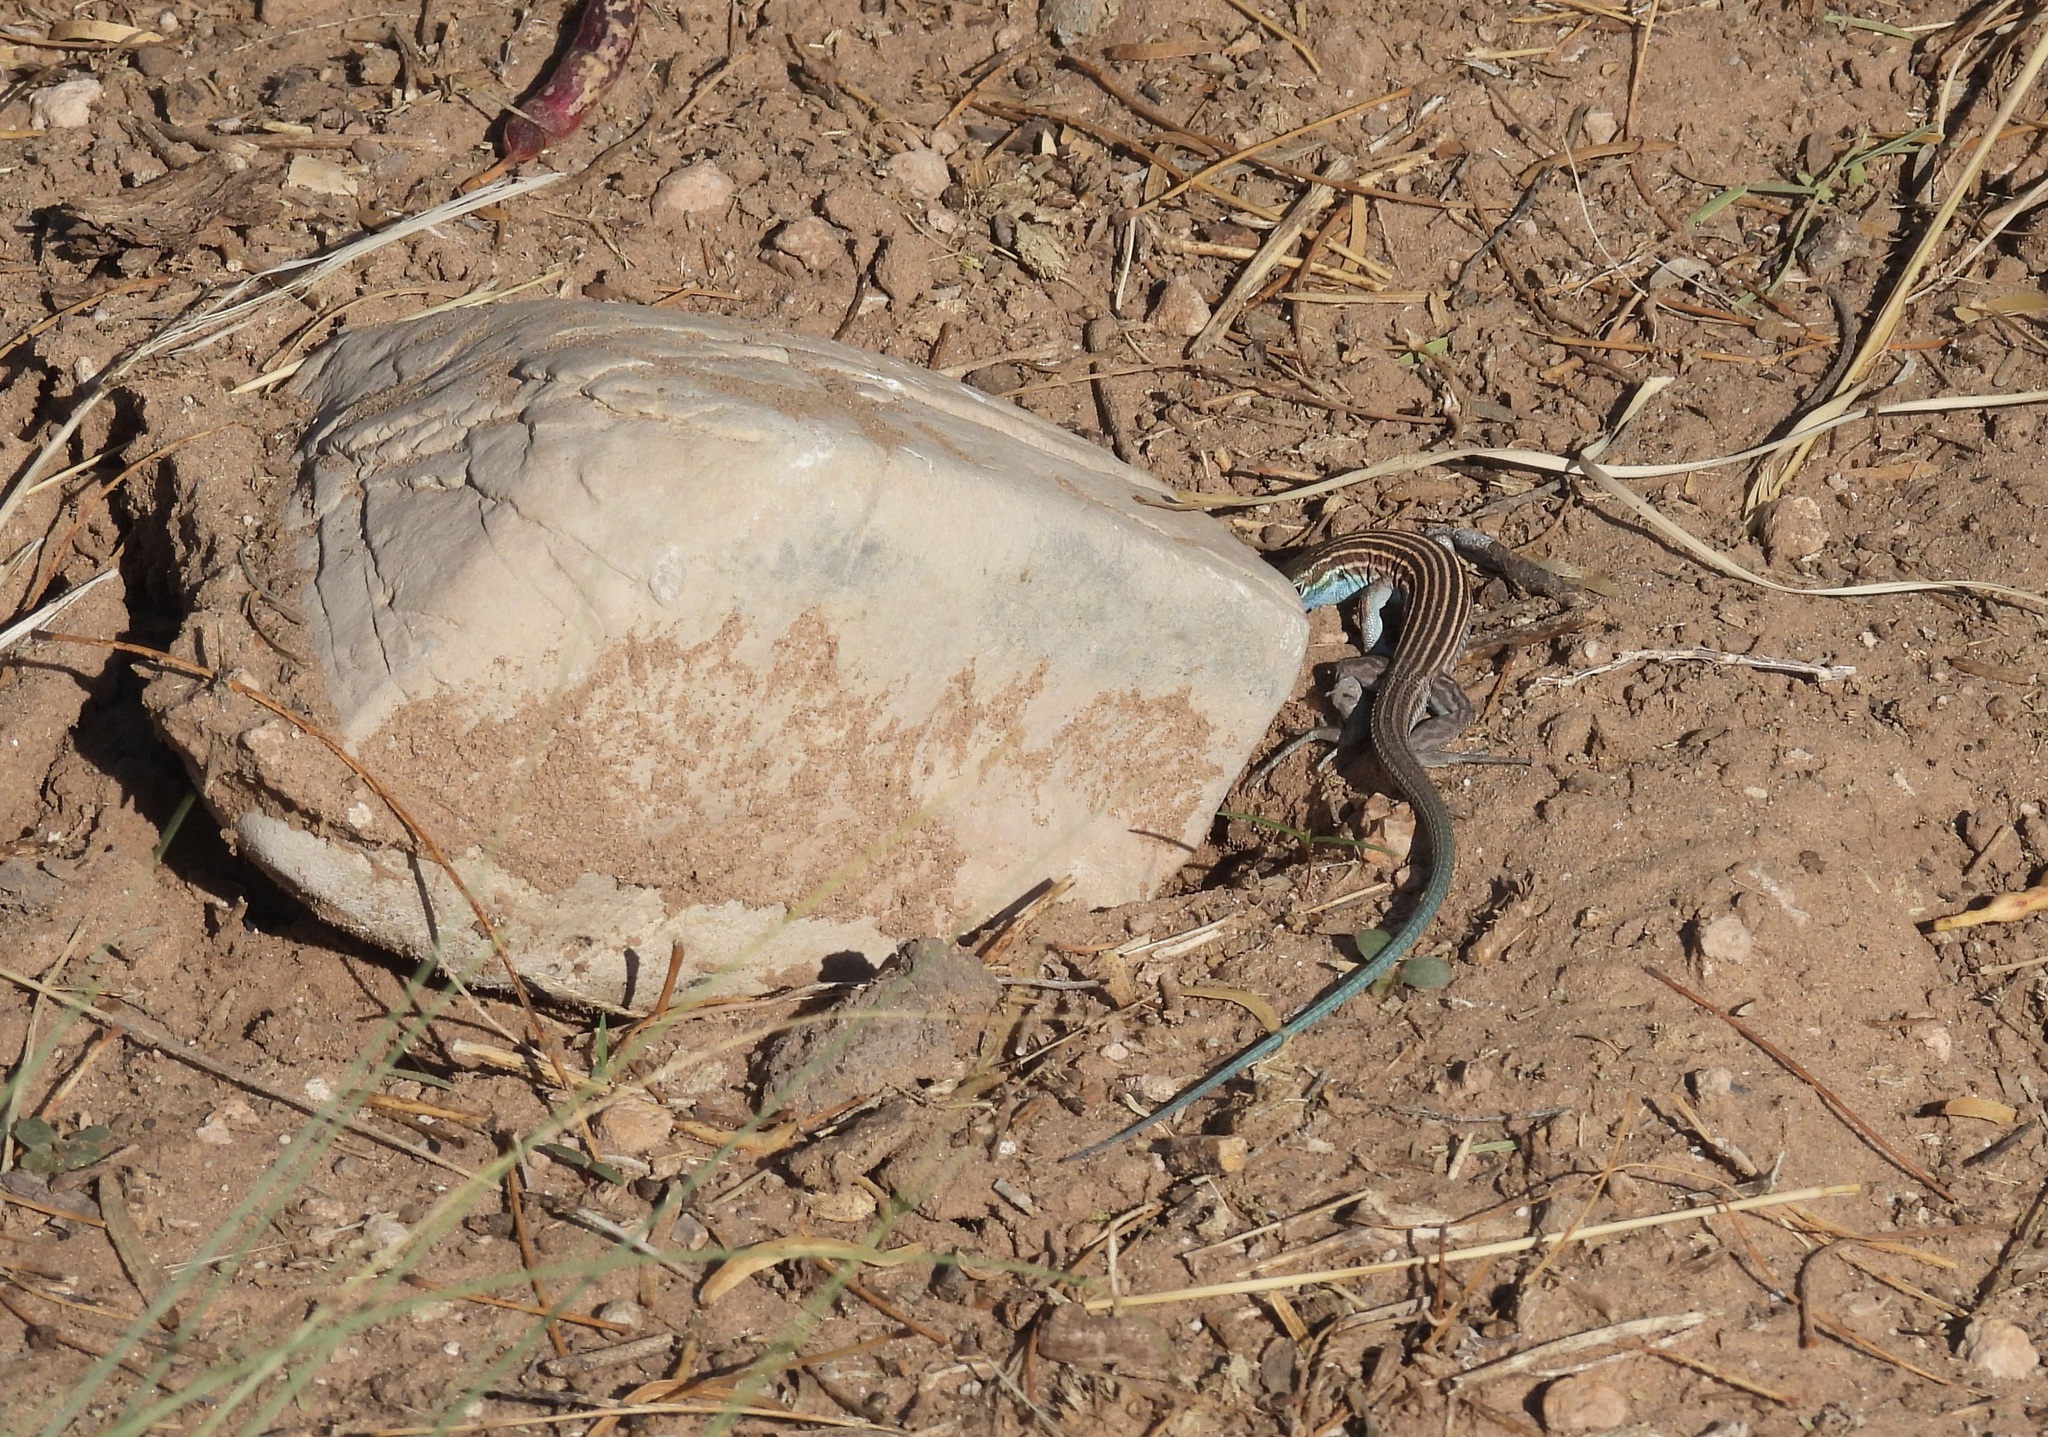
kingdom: Animalia
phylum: Chordata
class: Squamata
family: Teiidae
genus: Aspidoscelis
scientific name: Aspidoscelis inornatus
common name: Little striped whiptail
